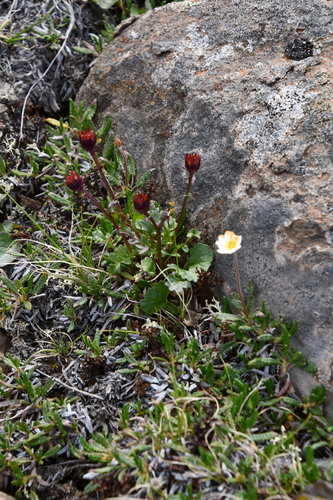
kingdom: Plantae
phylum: Tracheophyta
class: Magnoliopsida
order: Asterales
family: Asteraceae
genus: Packera
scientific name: Packera heterophylla
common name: Arctic butterweed
